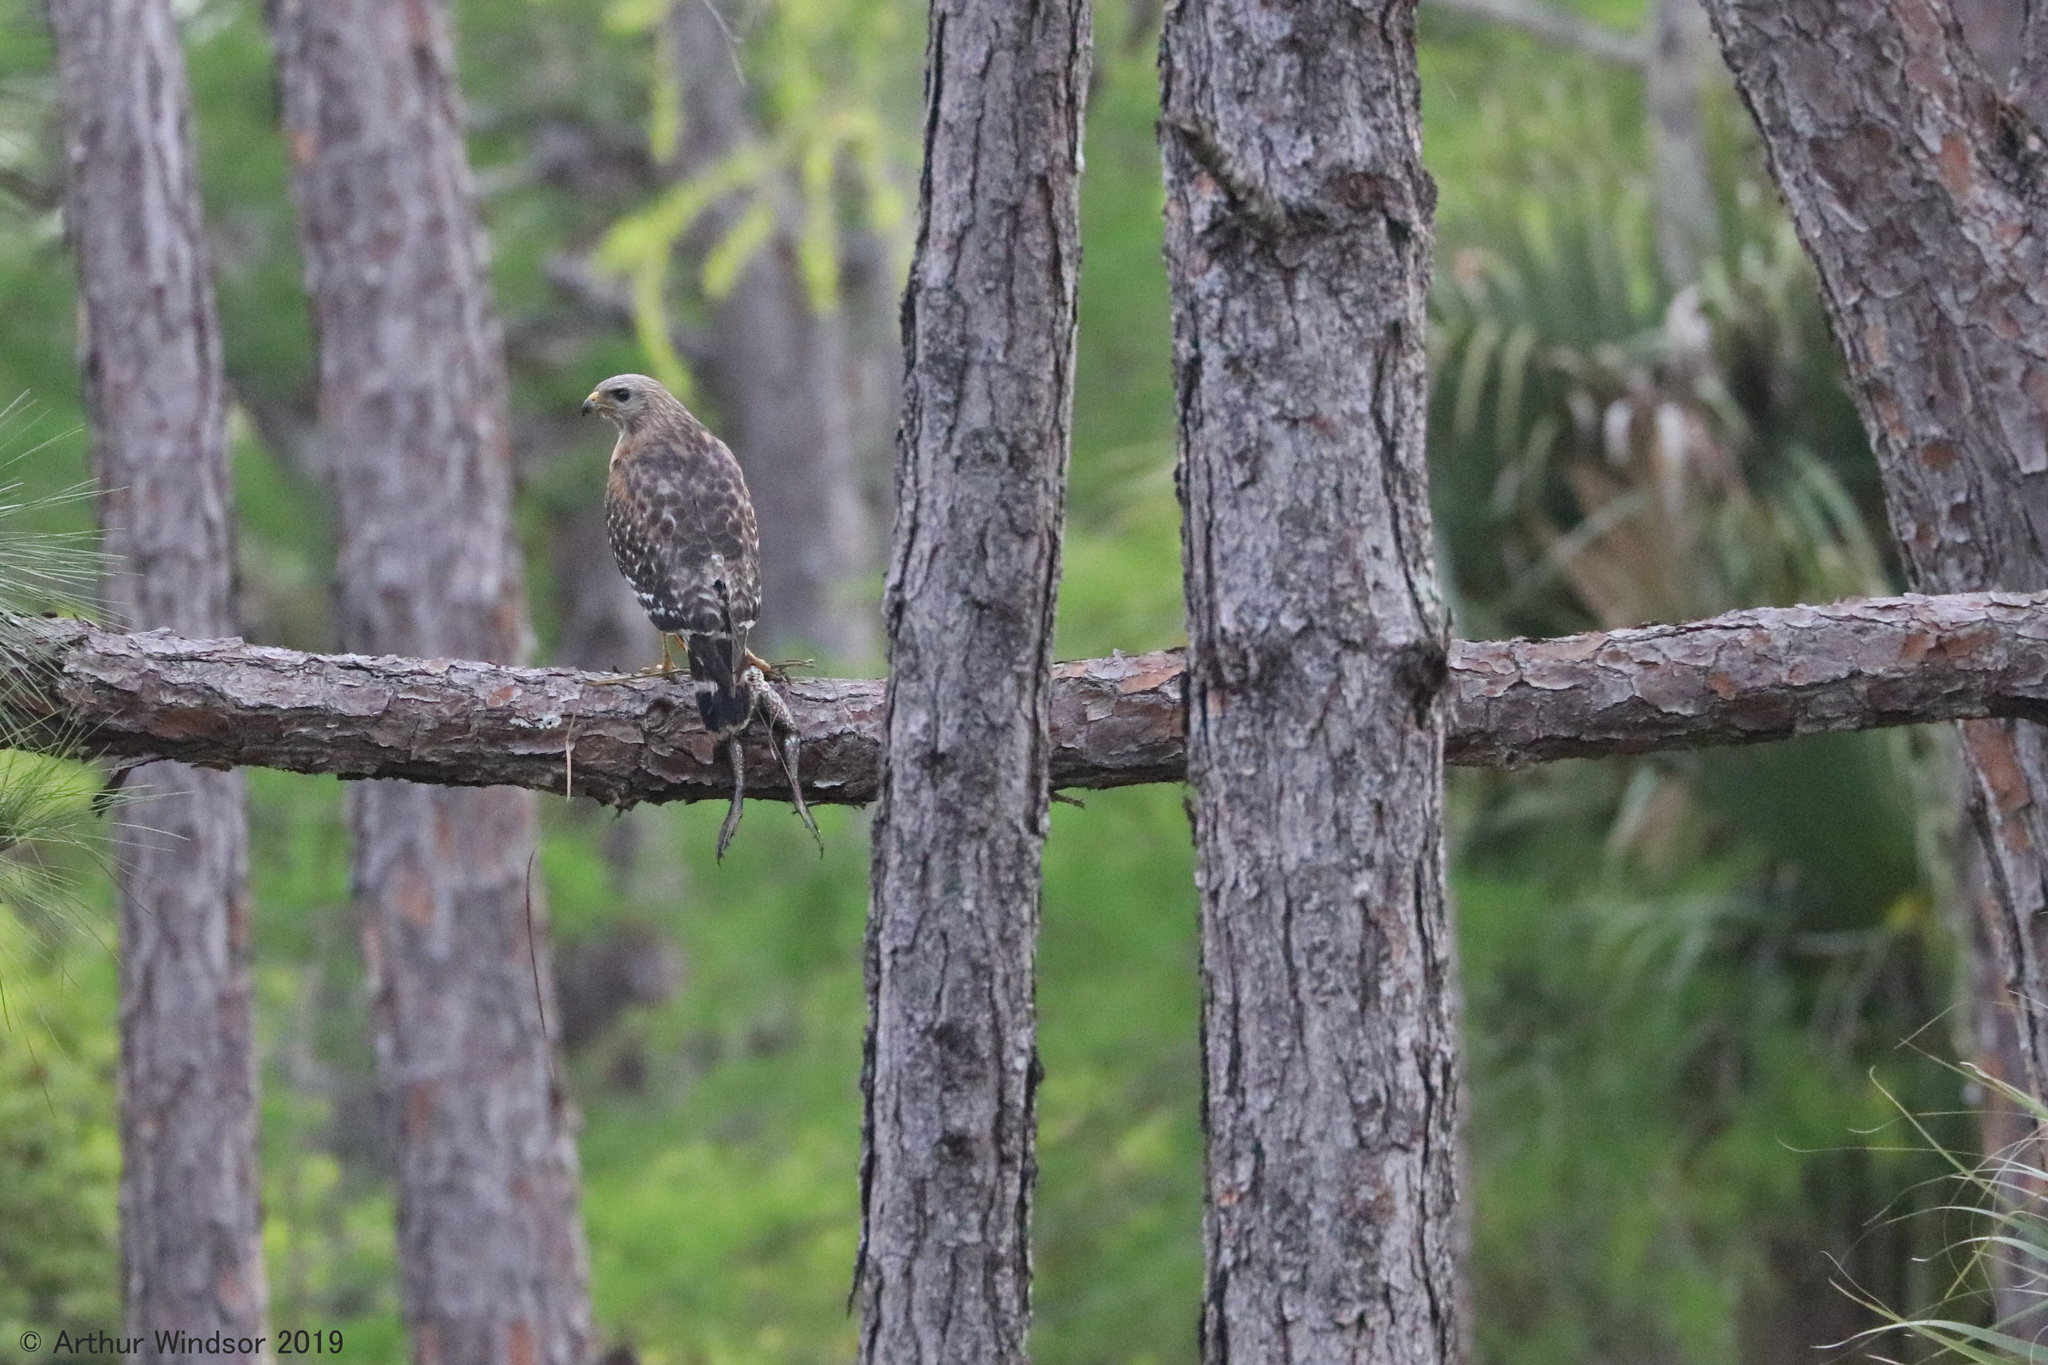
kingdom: Animalia
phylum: Chordata
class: Aves
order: Accipitriformes
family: Accipitridae
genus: Buteo
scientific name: Buteo lineatus
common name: Red-shouldered hawk
